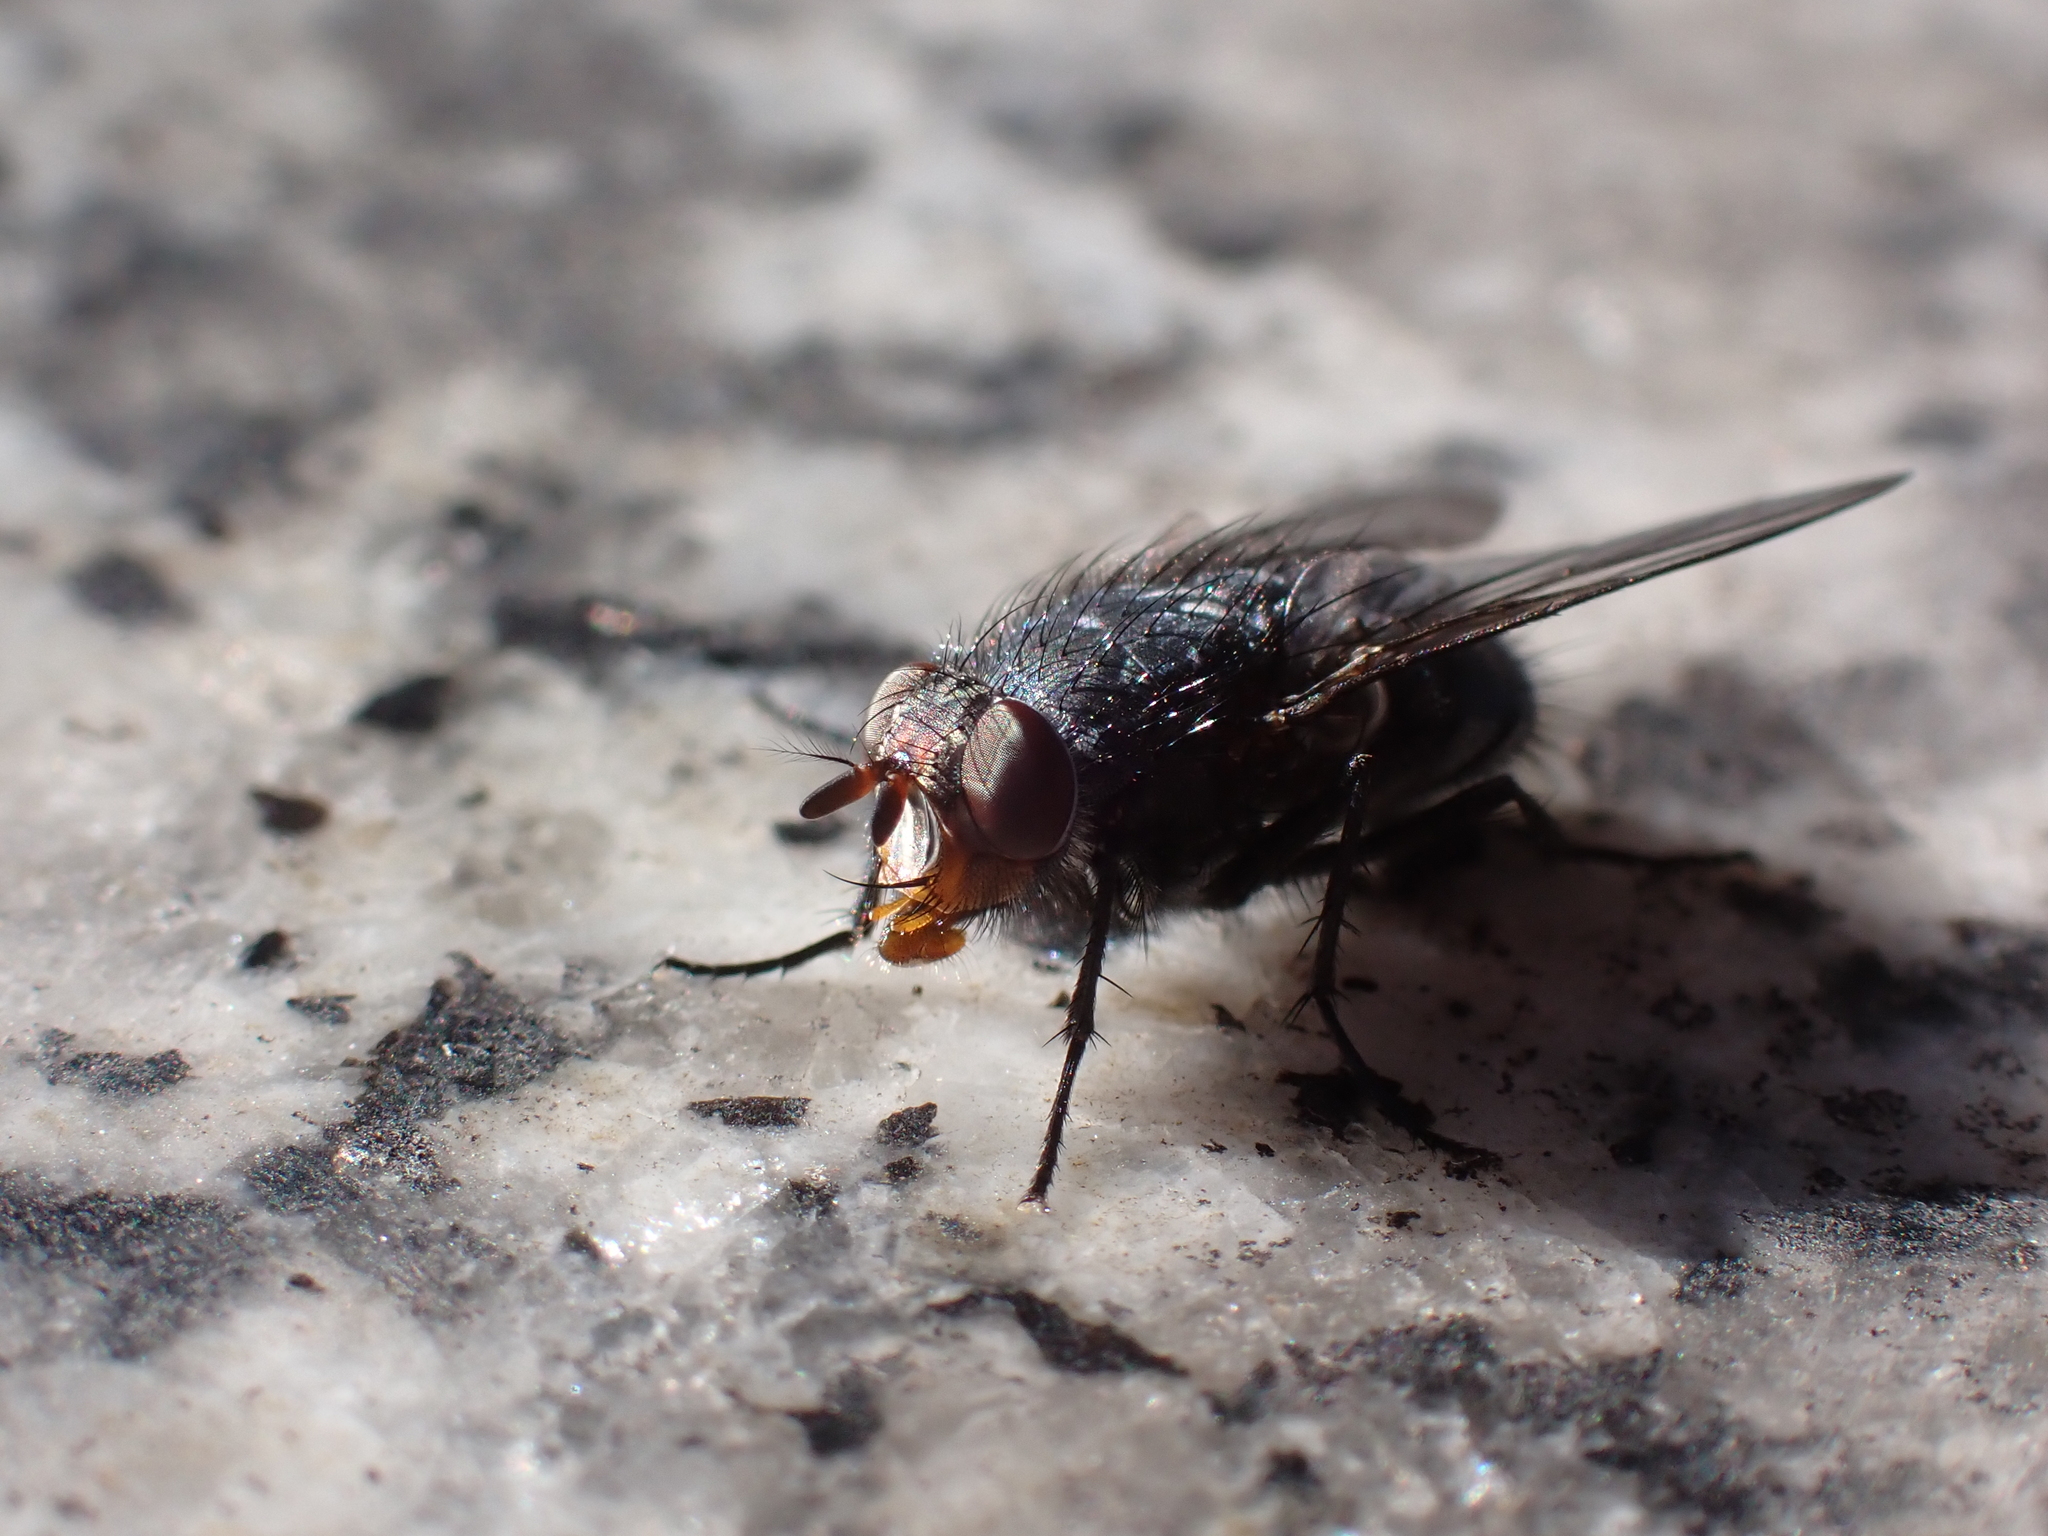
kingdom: Animalia
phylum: Arthropoda
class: Insecta
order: Diptera
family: Calliphoridae
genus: Calliphora
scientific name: Calliphora vicina
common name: Common blow flie
